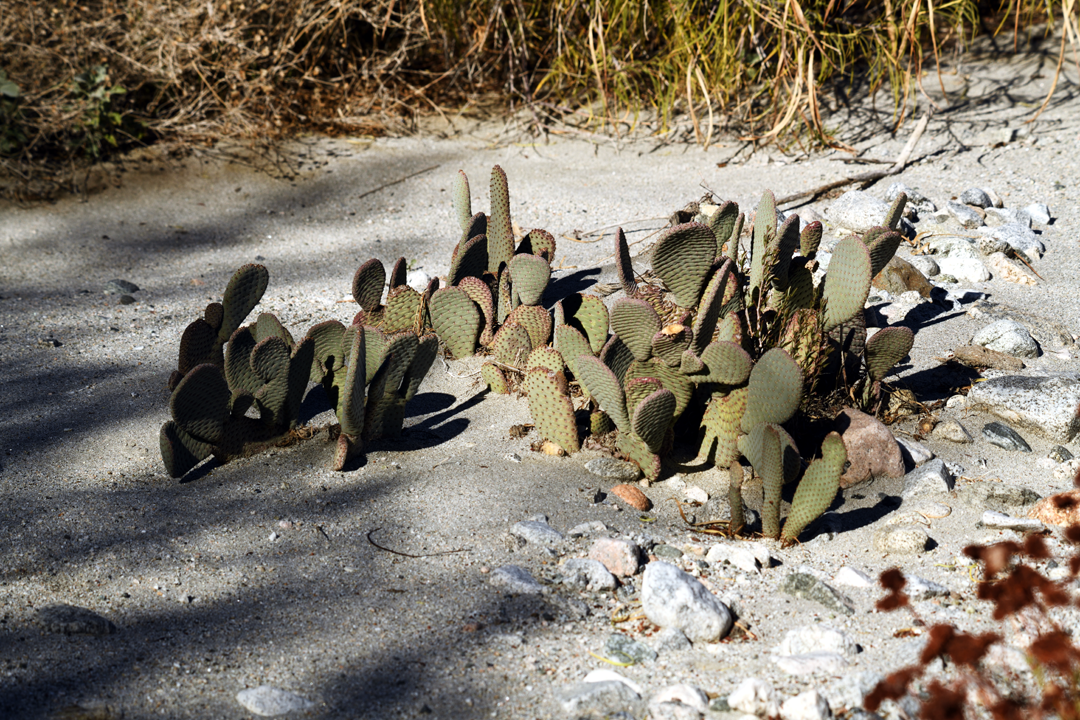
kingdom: Plantae
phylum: Tracheophyta
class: Magnoliopsida
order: Caryophyllales
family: Cactaceae
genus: Opuntia
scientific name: Opuntia basilaris
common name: Beavertail prickly-pear
